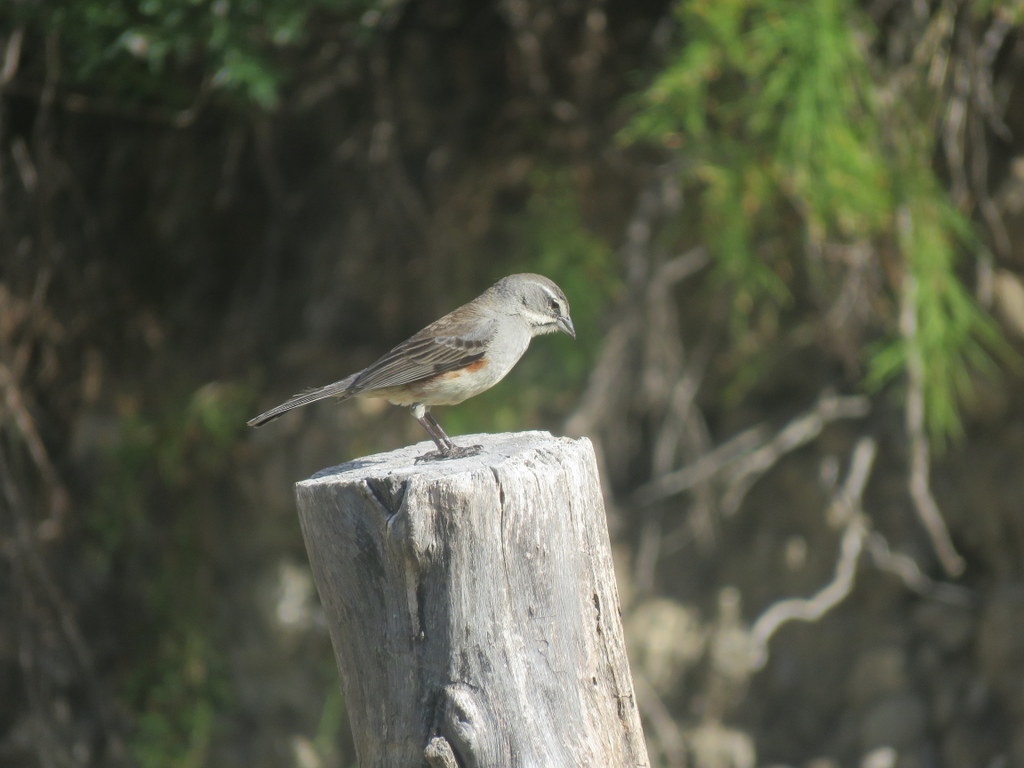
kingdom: Animalia
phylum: Chordata
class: Aves
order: Passeriformes
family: Thraupidae
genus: Poospizopsis
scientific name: Poospizopsis hypocondria
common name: Rufous-sided warbling-finch
